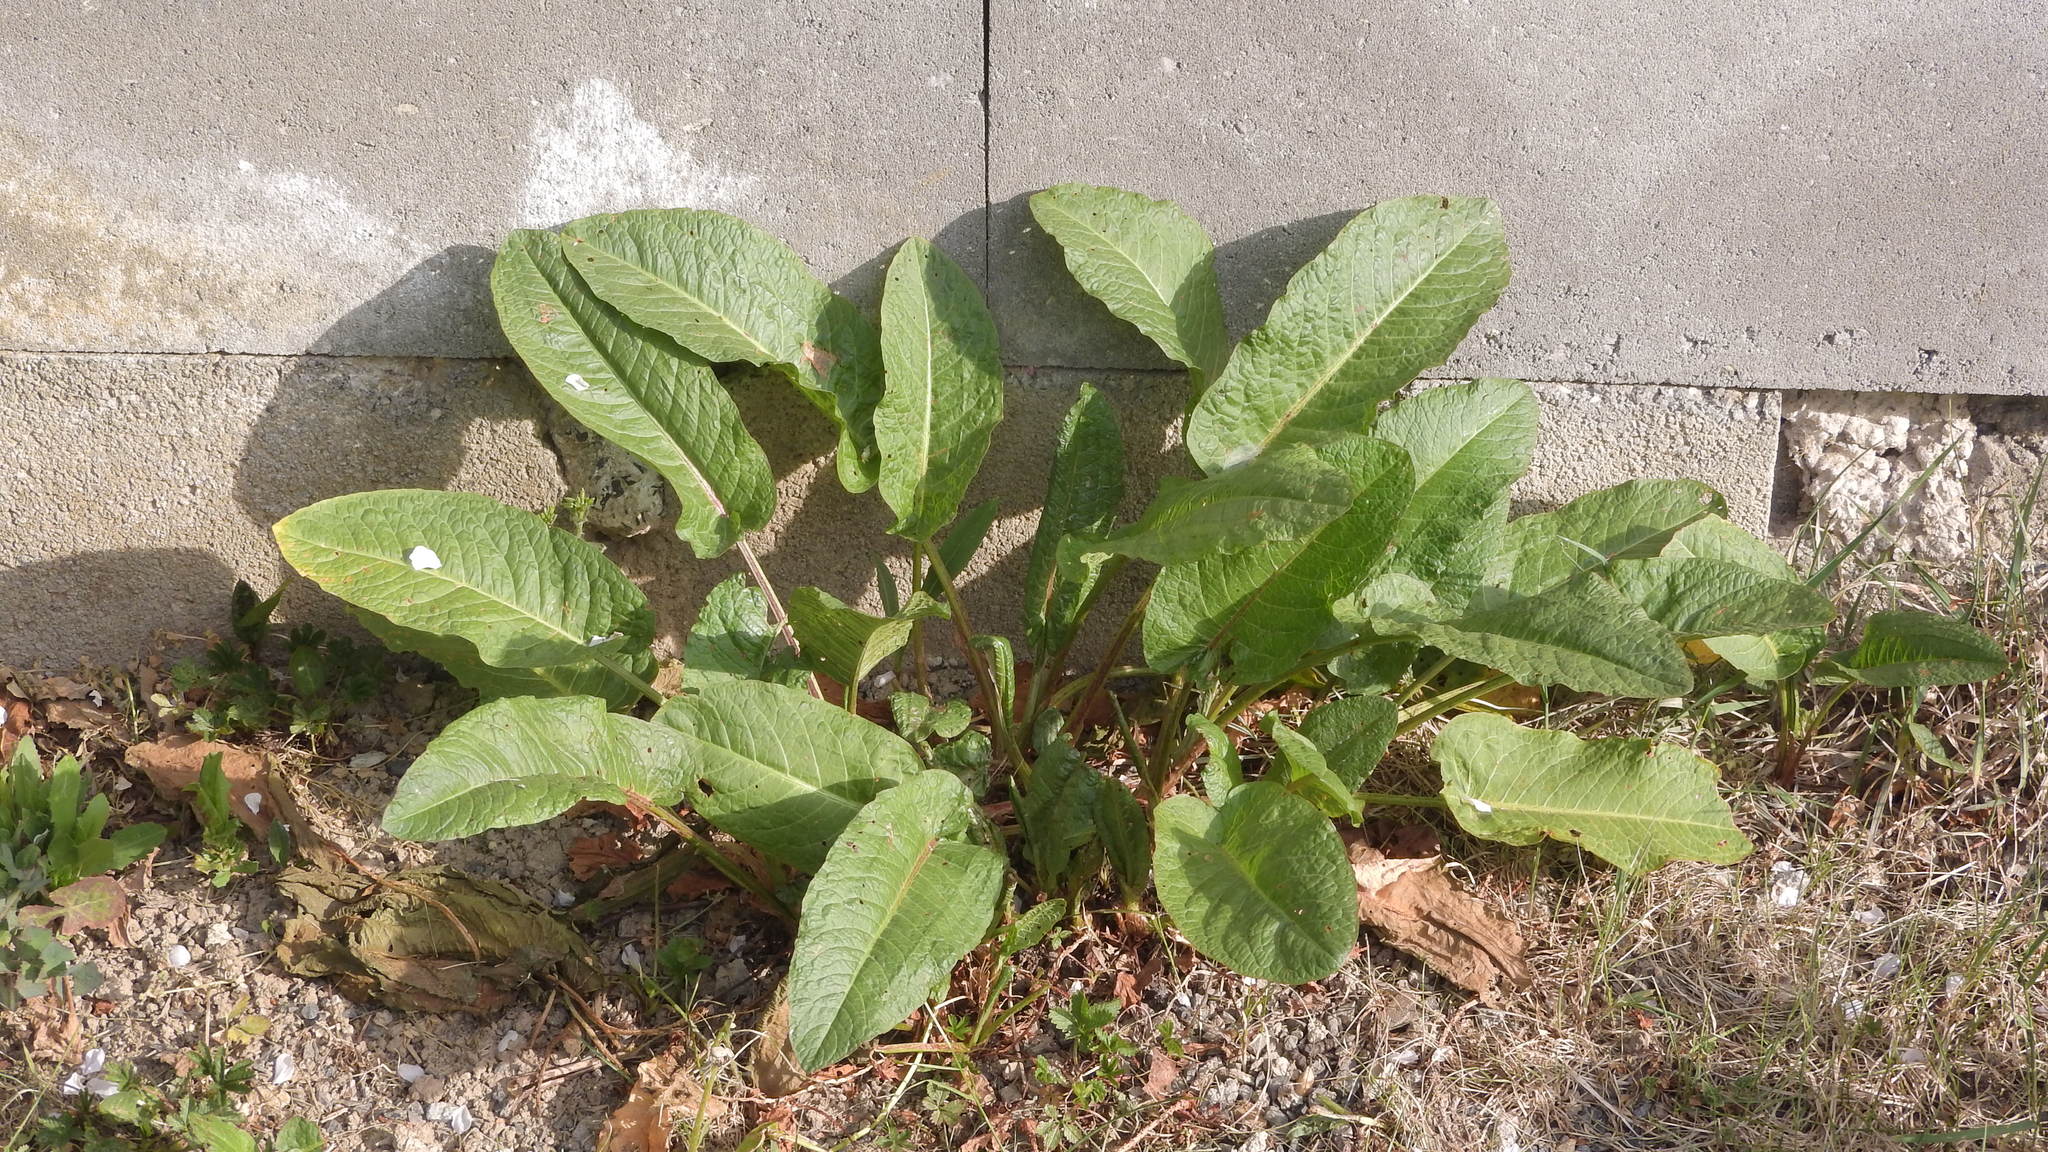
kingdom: Plantae
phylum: Tracheophyta
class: Magnoliopsida
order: Caryophyllales
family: Polygonaceae
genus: Rumex
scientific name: Rumex obtusifolius
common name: Bitter dock
